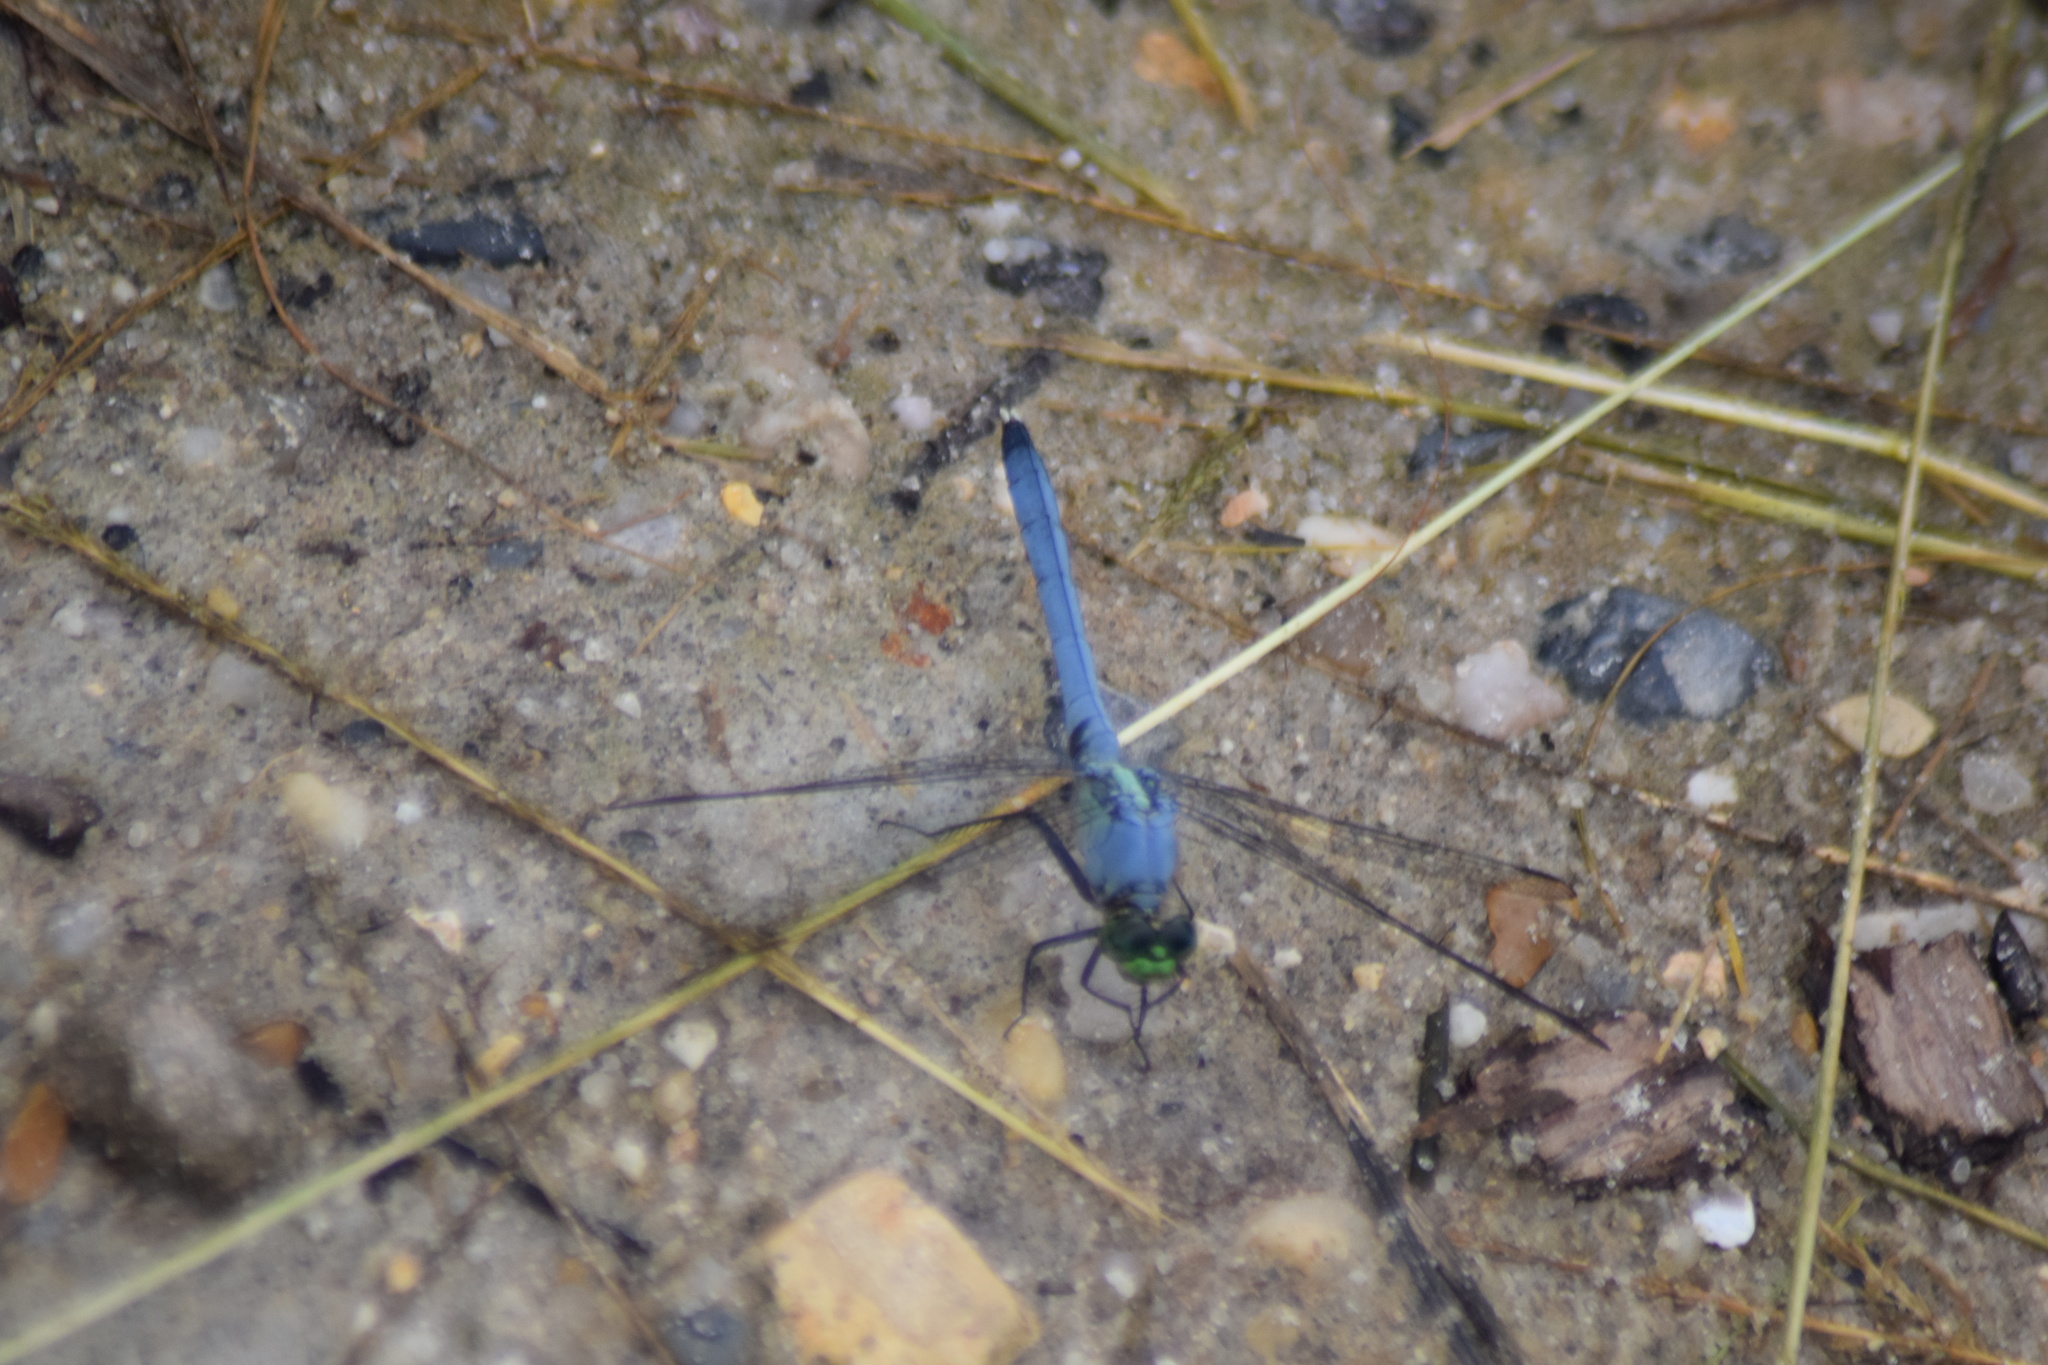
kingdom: Animalia
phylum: Arthropoda
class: Insecta
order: Odonata
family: Libellulidae
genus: Erythemis
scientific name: Erythemis simplicicollis
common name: Eastern pondhawk
